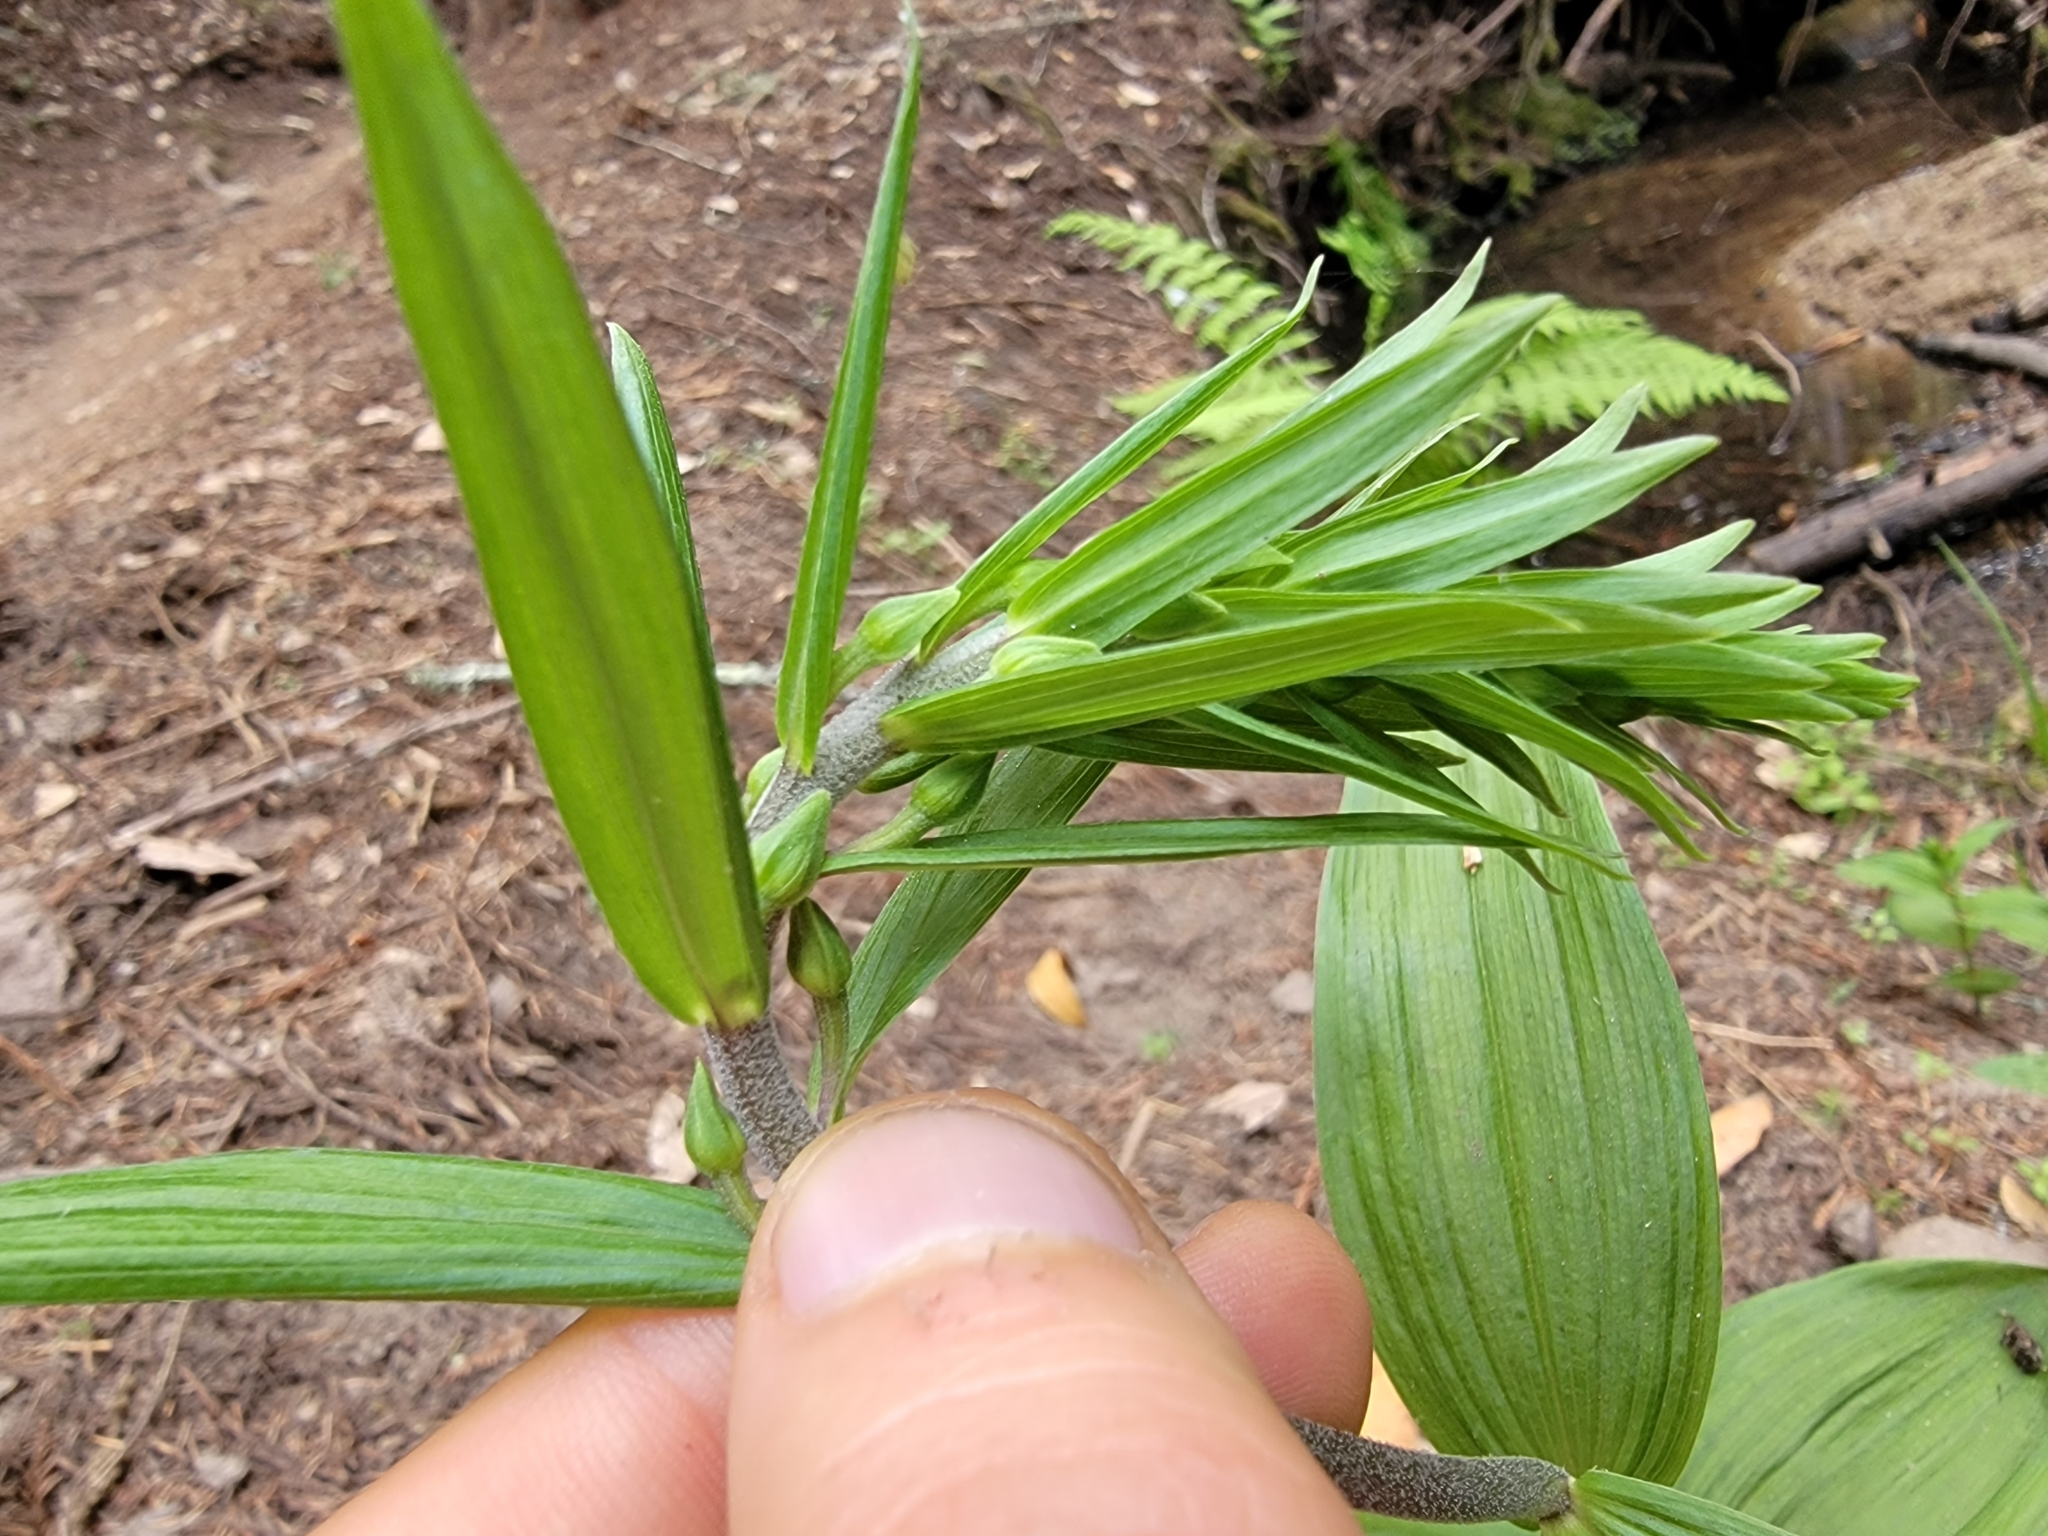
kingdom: Plantae
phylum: Tracheophyta
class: Liliopsida
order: Asparagales
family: Orchidaceae
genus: Epipactis
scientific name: Epipactis helleborine
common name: Broad-leaved helleborine
